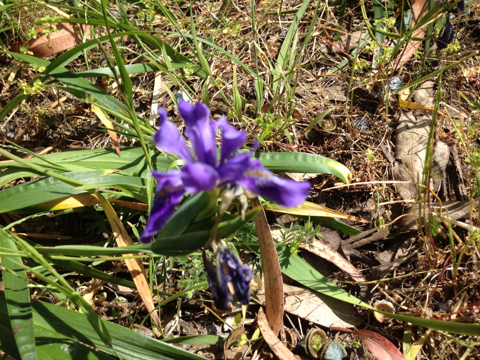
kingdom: Plantae
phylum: Tracheophyta
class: Liliopsida
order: Asparagales
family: Iridaceae
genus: Iris
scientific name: Iris douglasiana
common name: Marin iris
